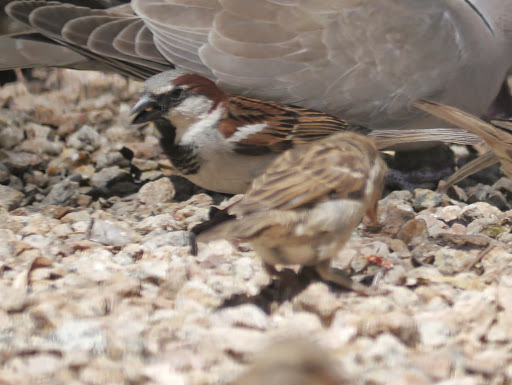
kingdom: Animalia
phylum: Chordata
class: Aves
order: Passeriformes
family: Passeridae
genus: Passer
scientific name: Passer domesticus
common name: House sparrow
